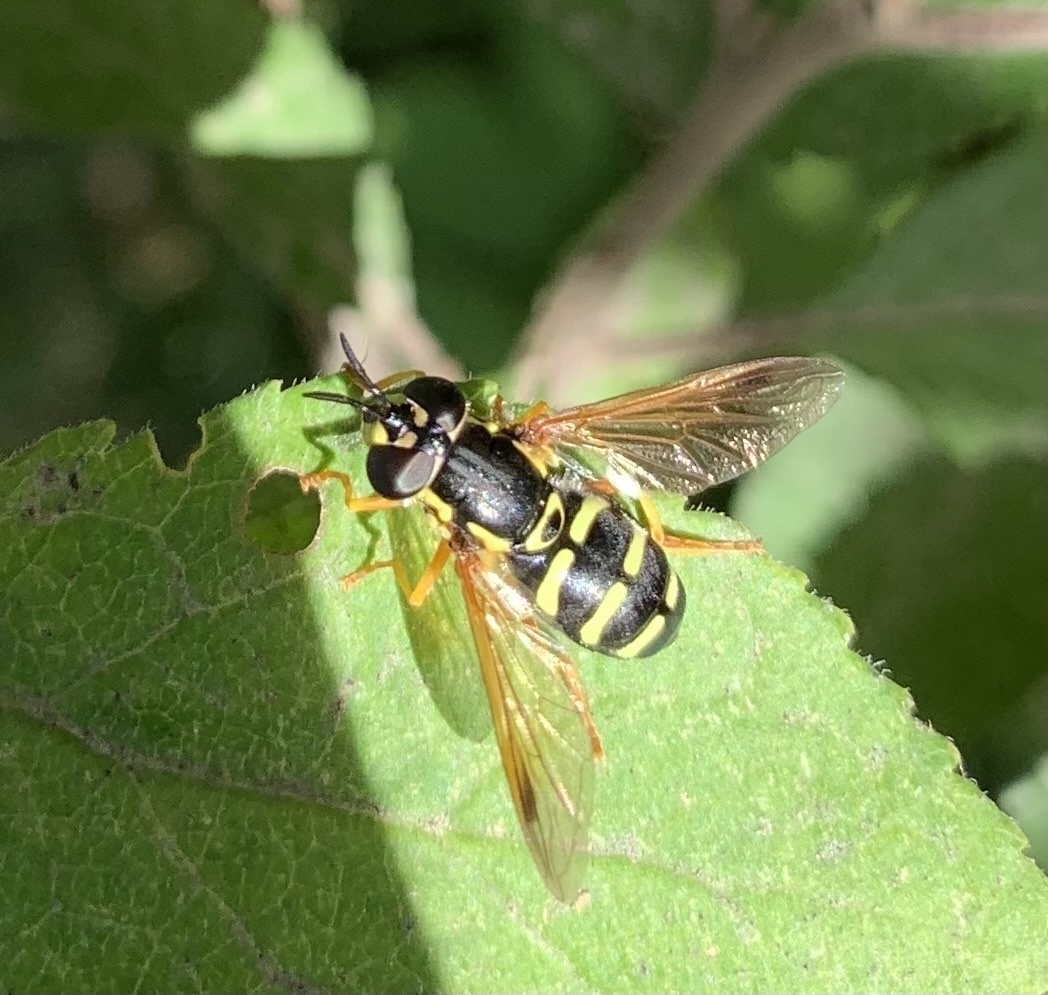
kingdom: Animalia
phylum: Arthropoda
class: Insecta
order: Diptera
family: Syrphidae
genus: Chrysotoxum
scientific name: Chrysotoxum festivum
